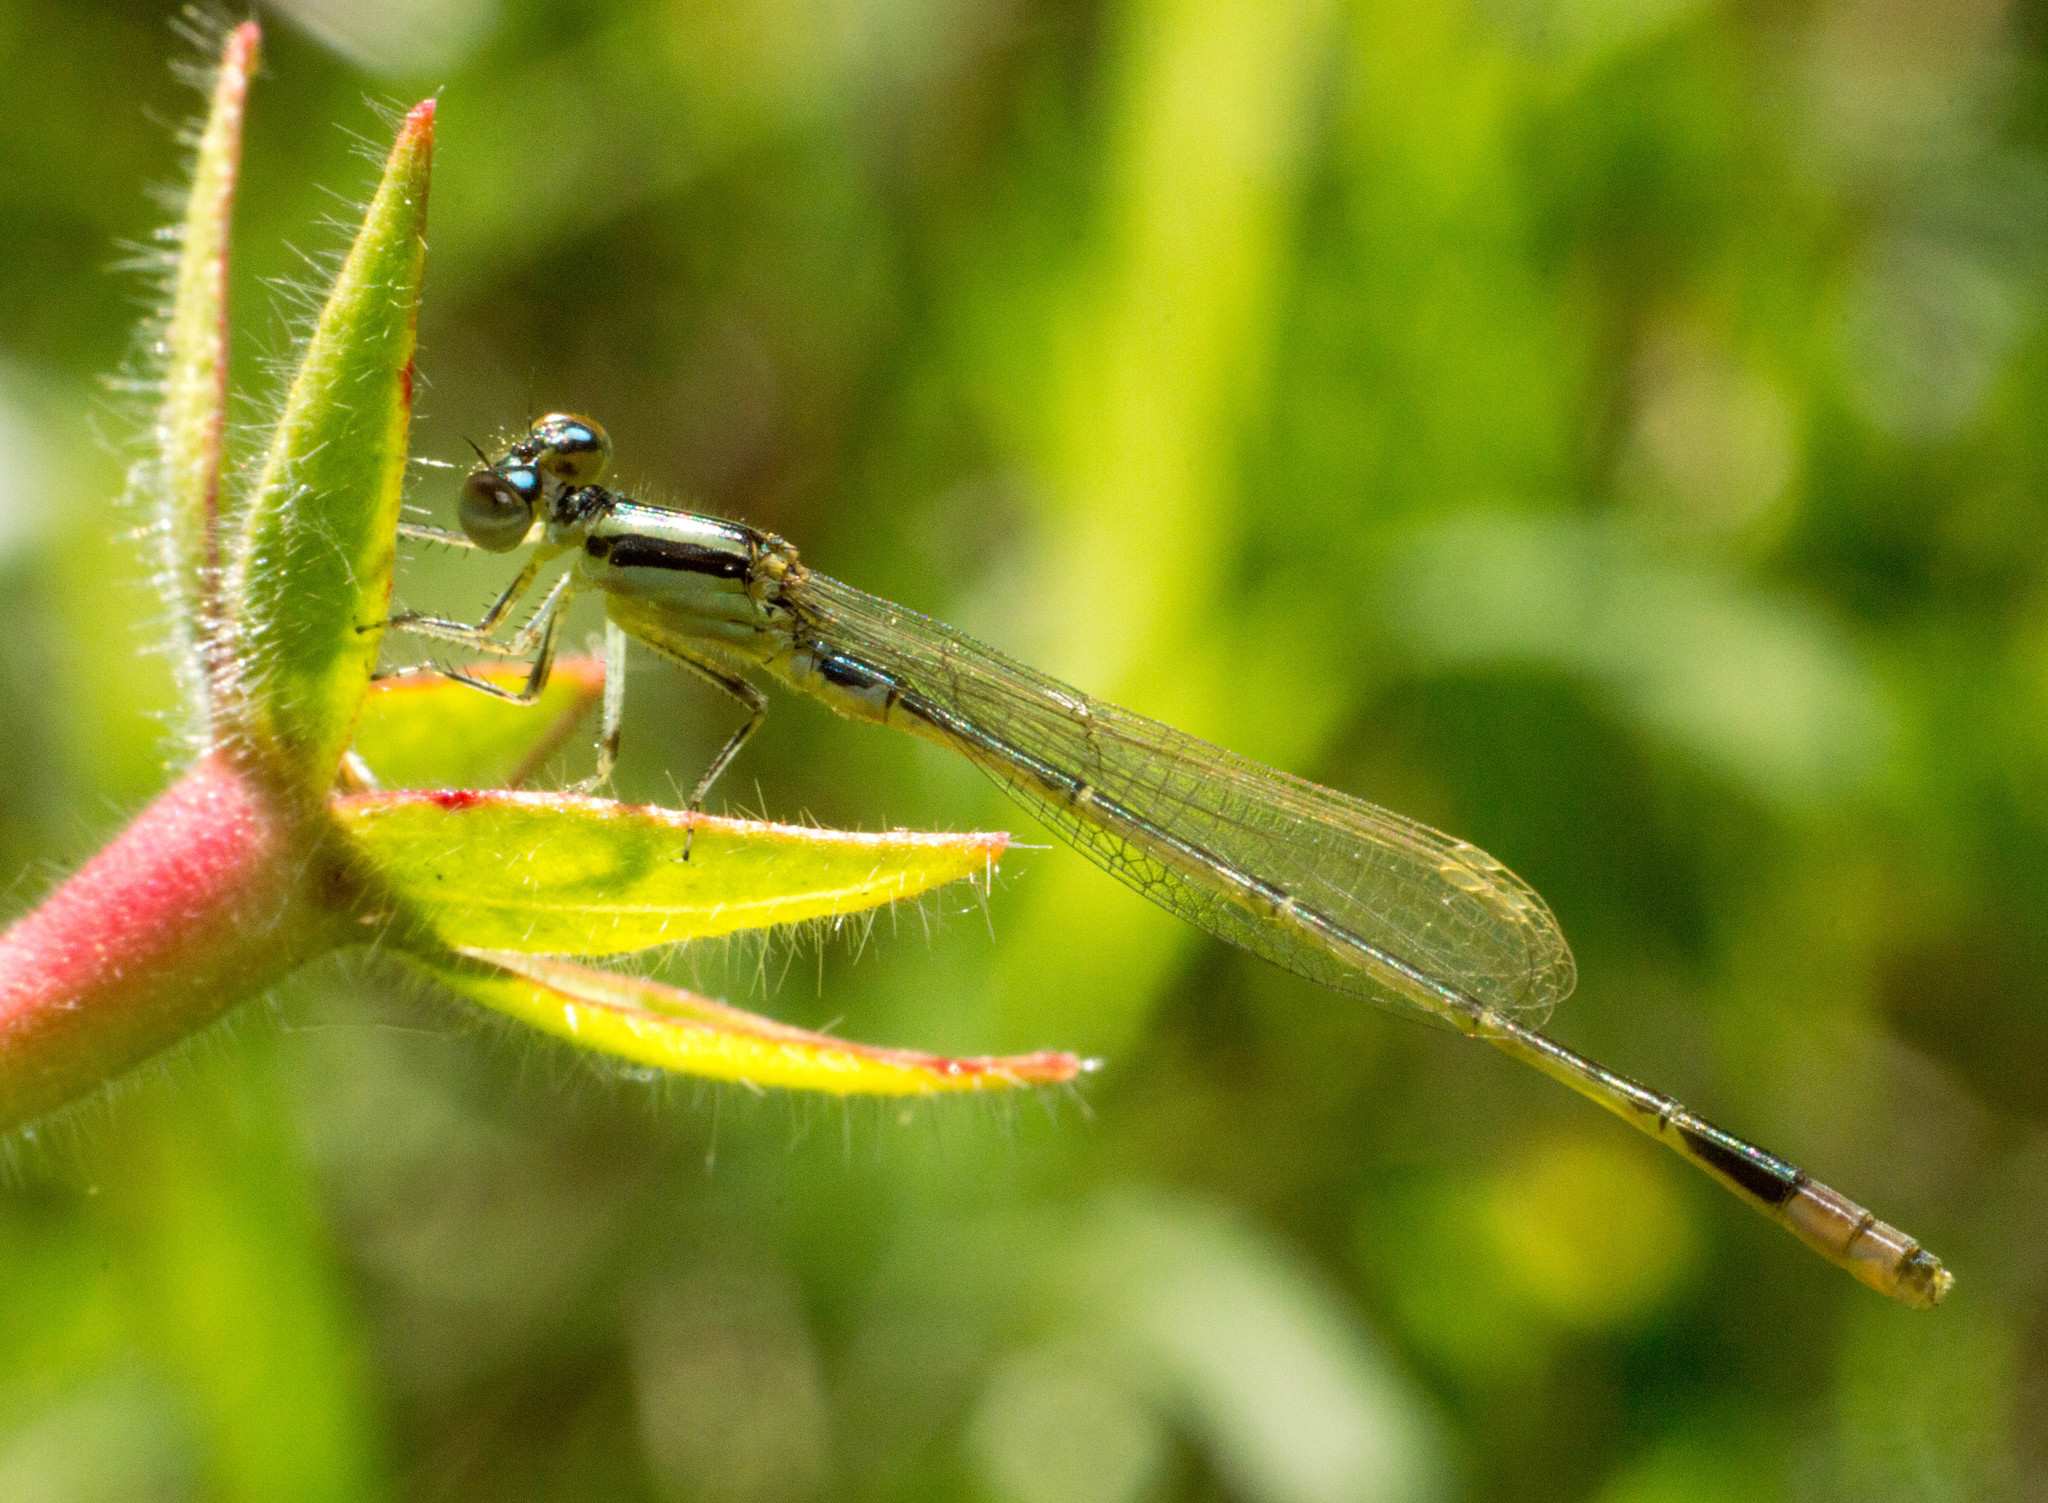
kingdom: Animalia
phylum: Arthropoda
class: Insecta
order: Odonata
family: Coenagrionidae
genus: Ischnura
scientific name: Ischnura fluviatilis
